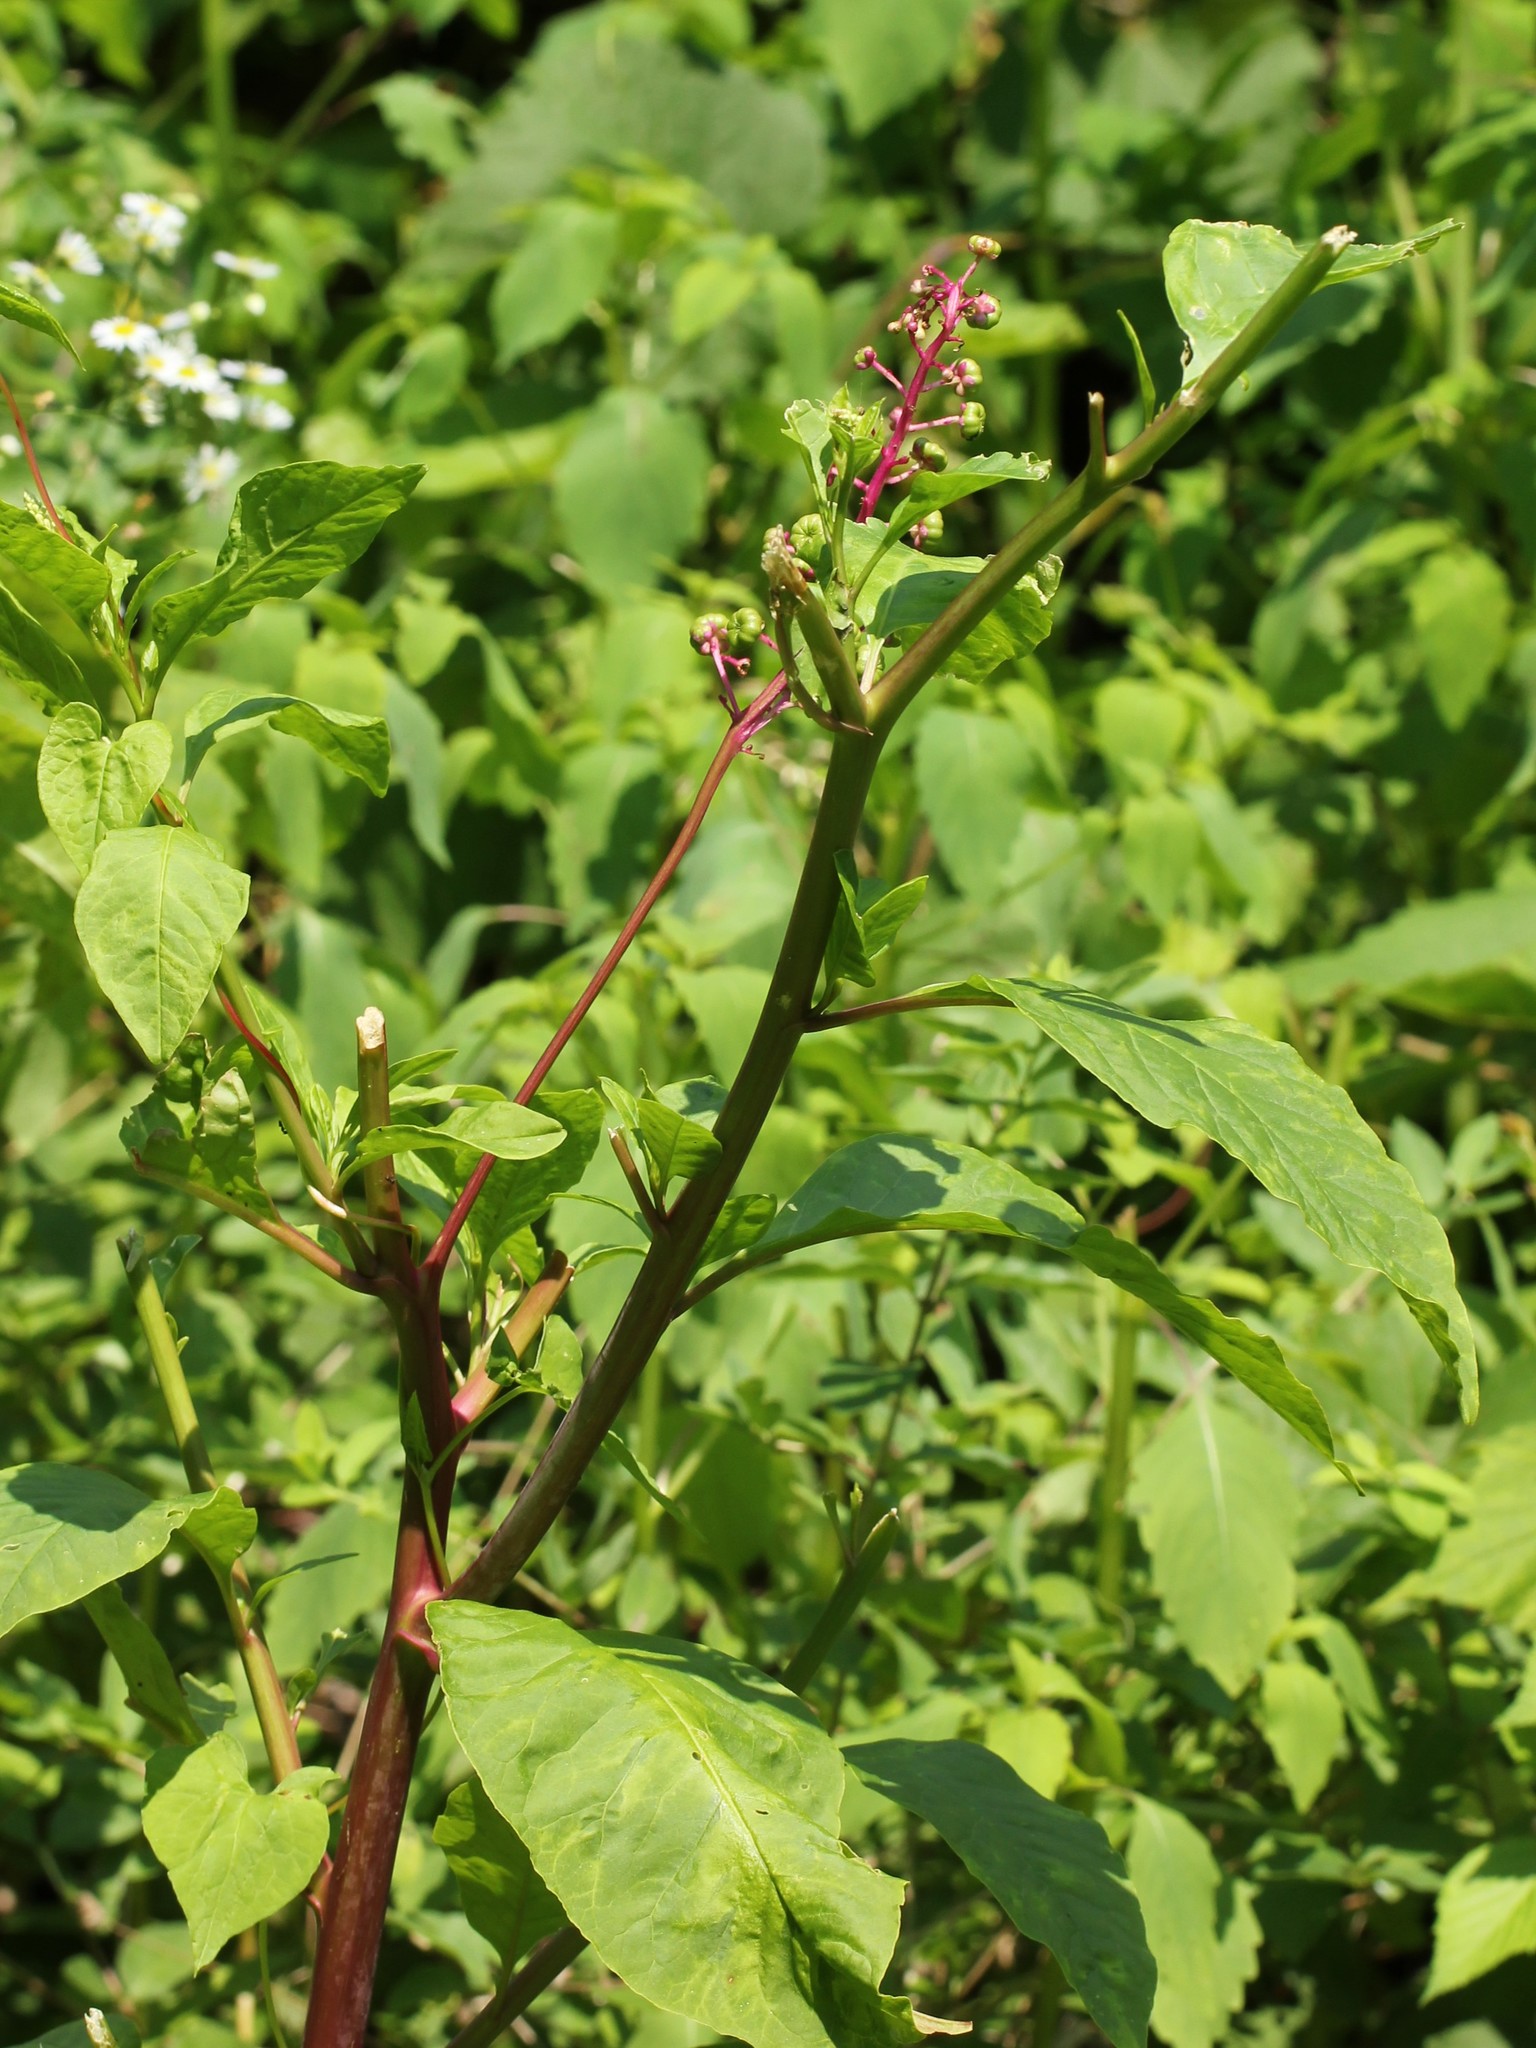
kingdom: Plantae
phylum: Tracheophyta
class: Magnoliopsida
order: Caryophyllales
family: Phytolaccaceae
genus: Phytolacca
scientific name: Phytolacca americana
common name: American pokeweed
